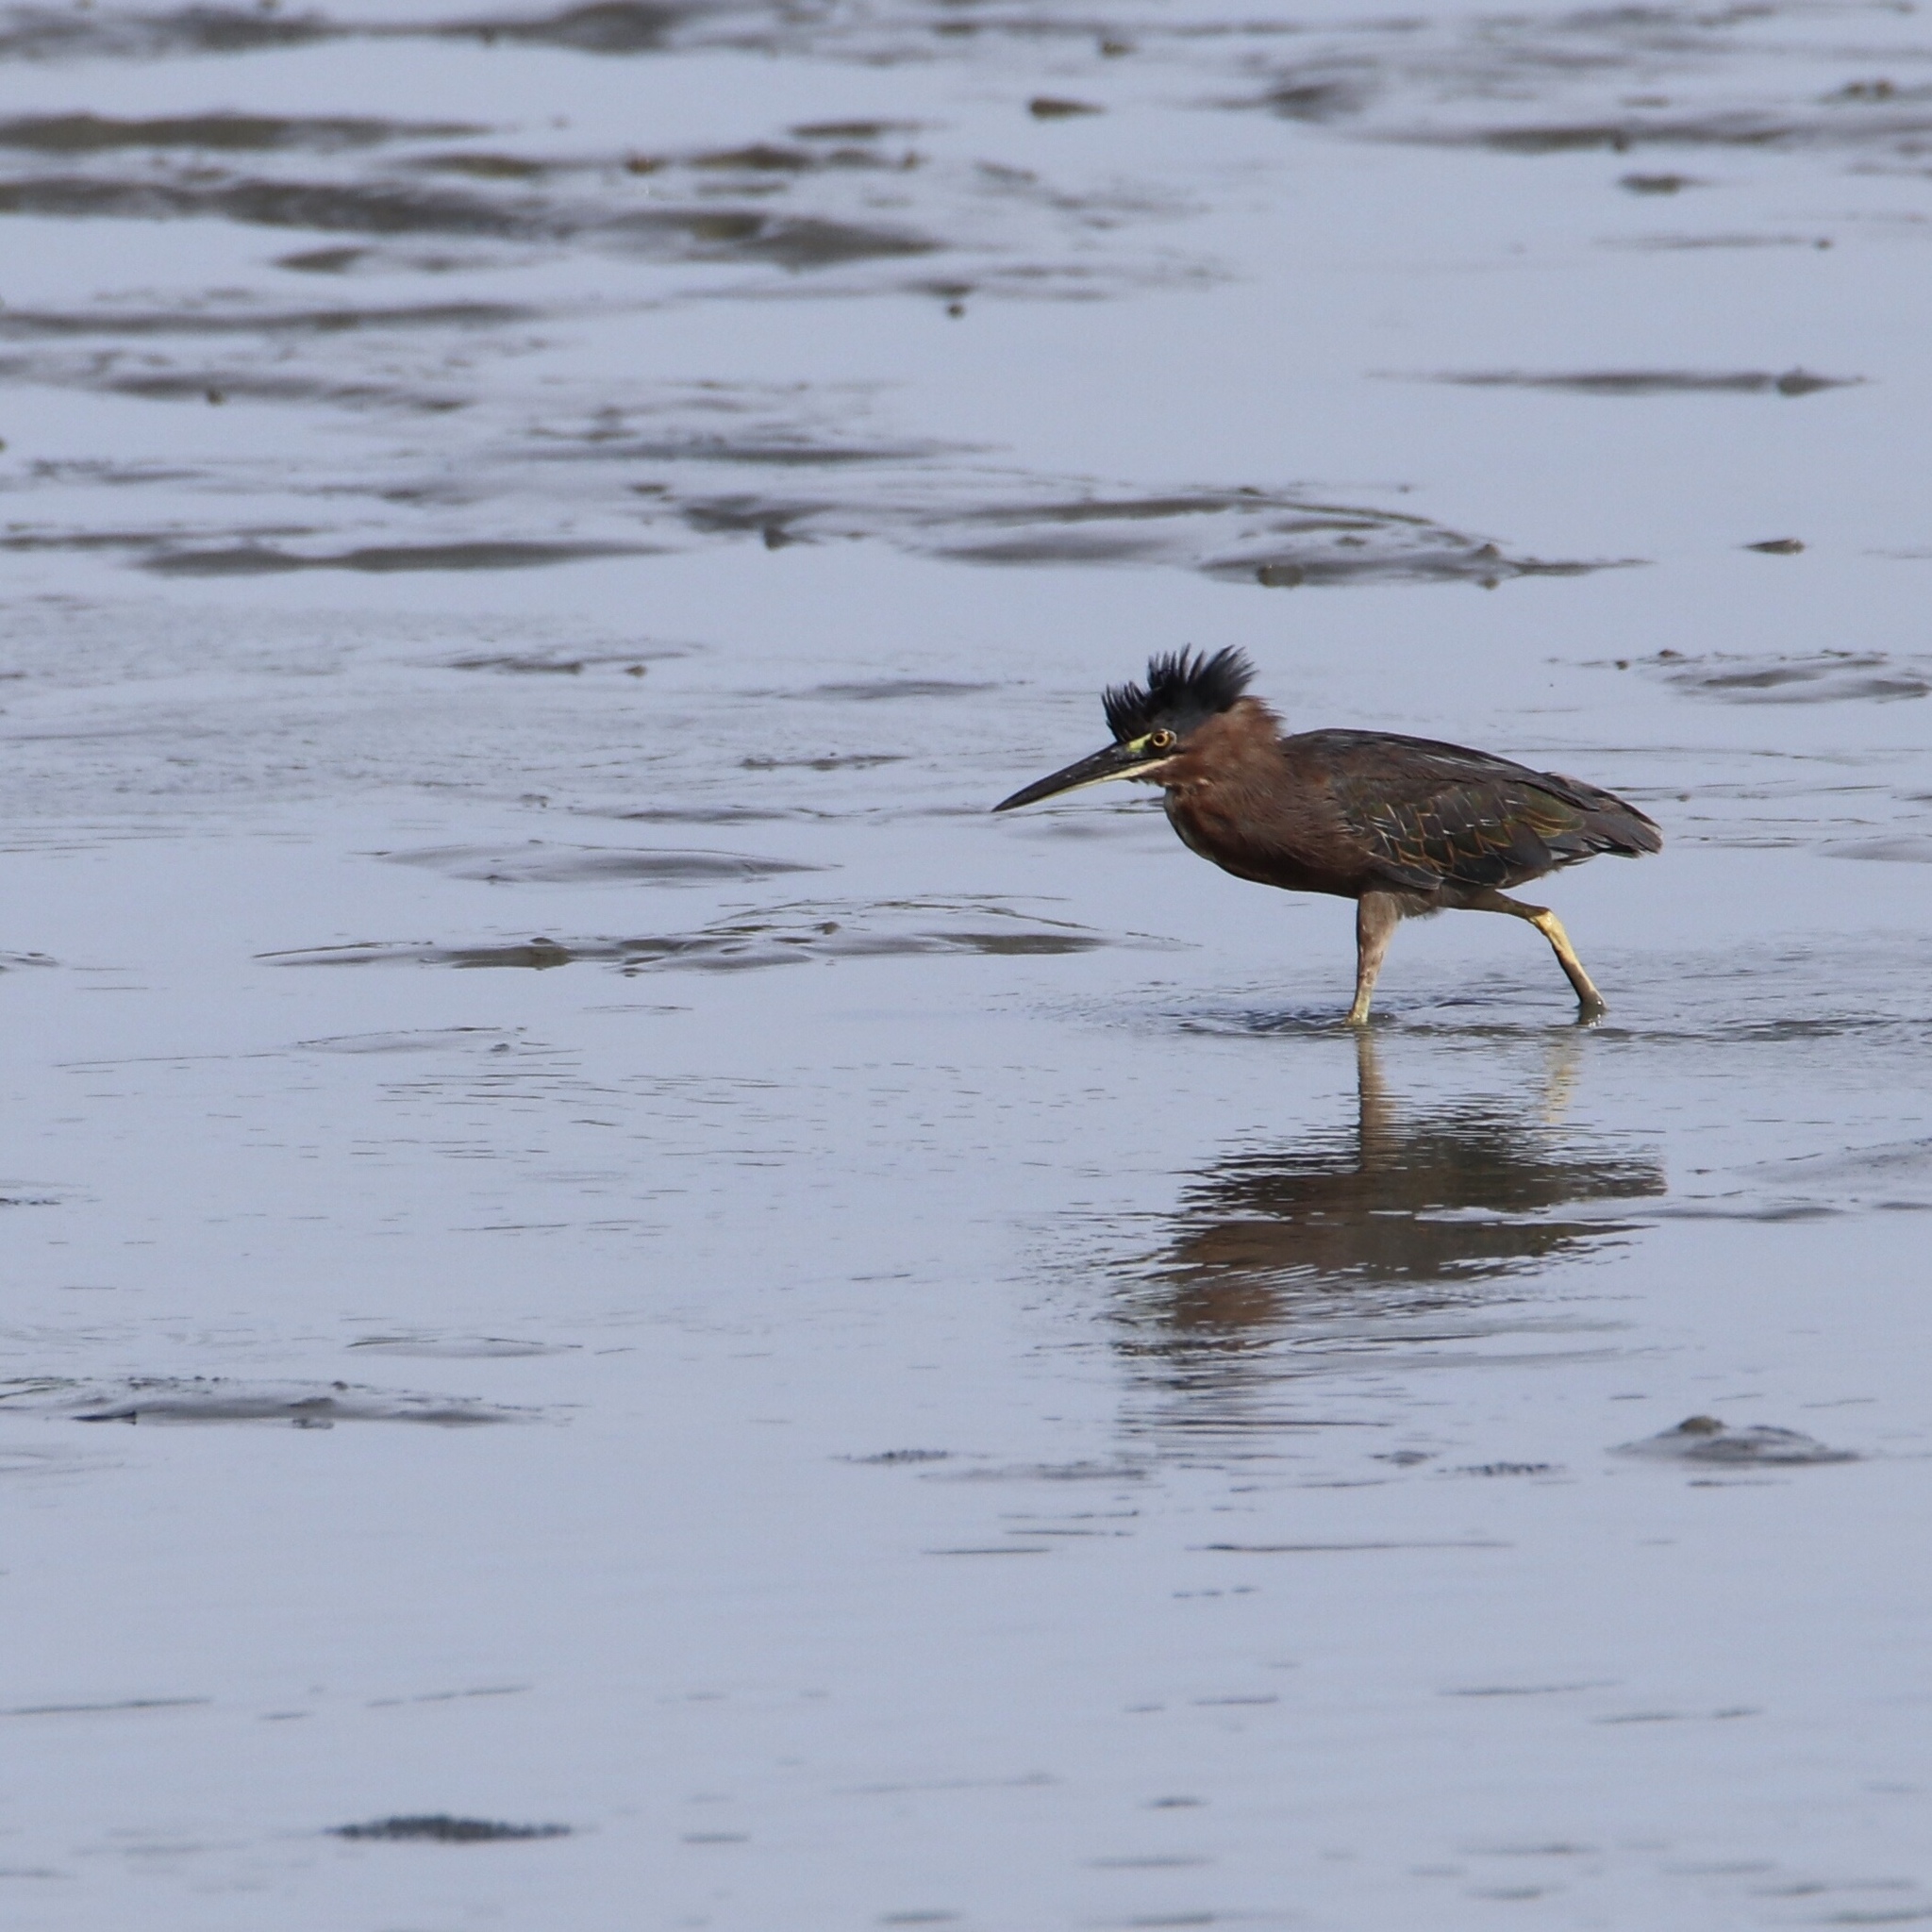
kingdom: Animalia
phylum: Chordata
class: Aves
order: Pelecaniformes
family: Ardeidae
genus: Butorides
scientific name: Butorides virescens
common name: Green heron
